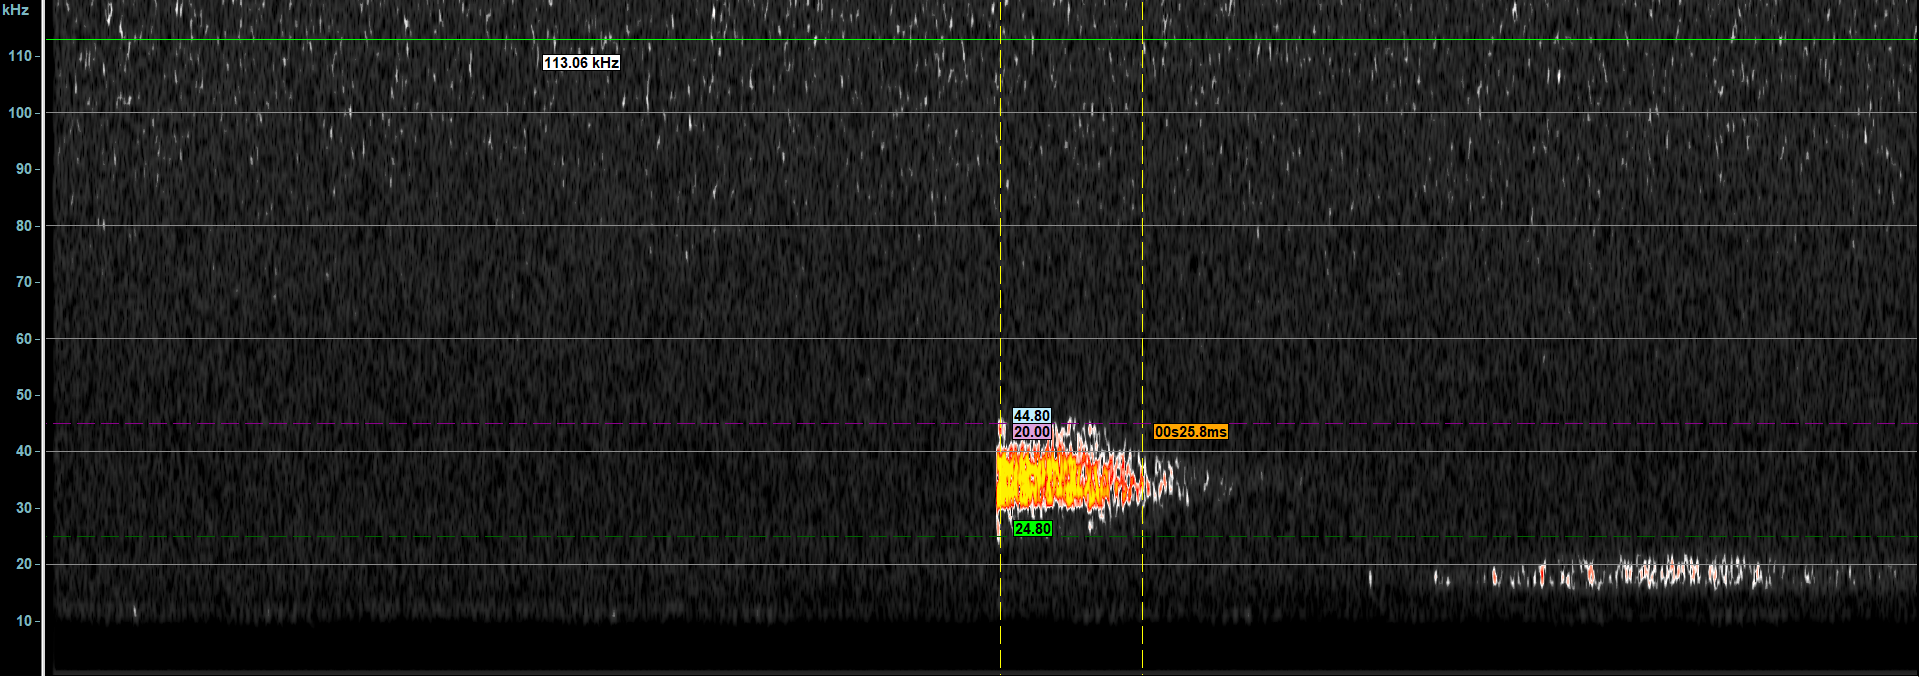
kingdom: Animalia
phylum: Arthropoda
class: Insecta
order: Orthoptera
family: Tettigoniidae
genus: Leptophyes
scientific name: Leptophyes punctatissima
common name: Speckled bush-cricket
